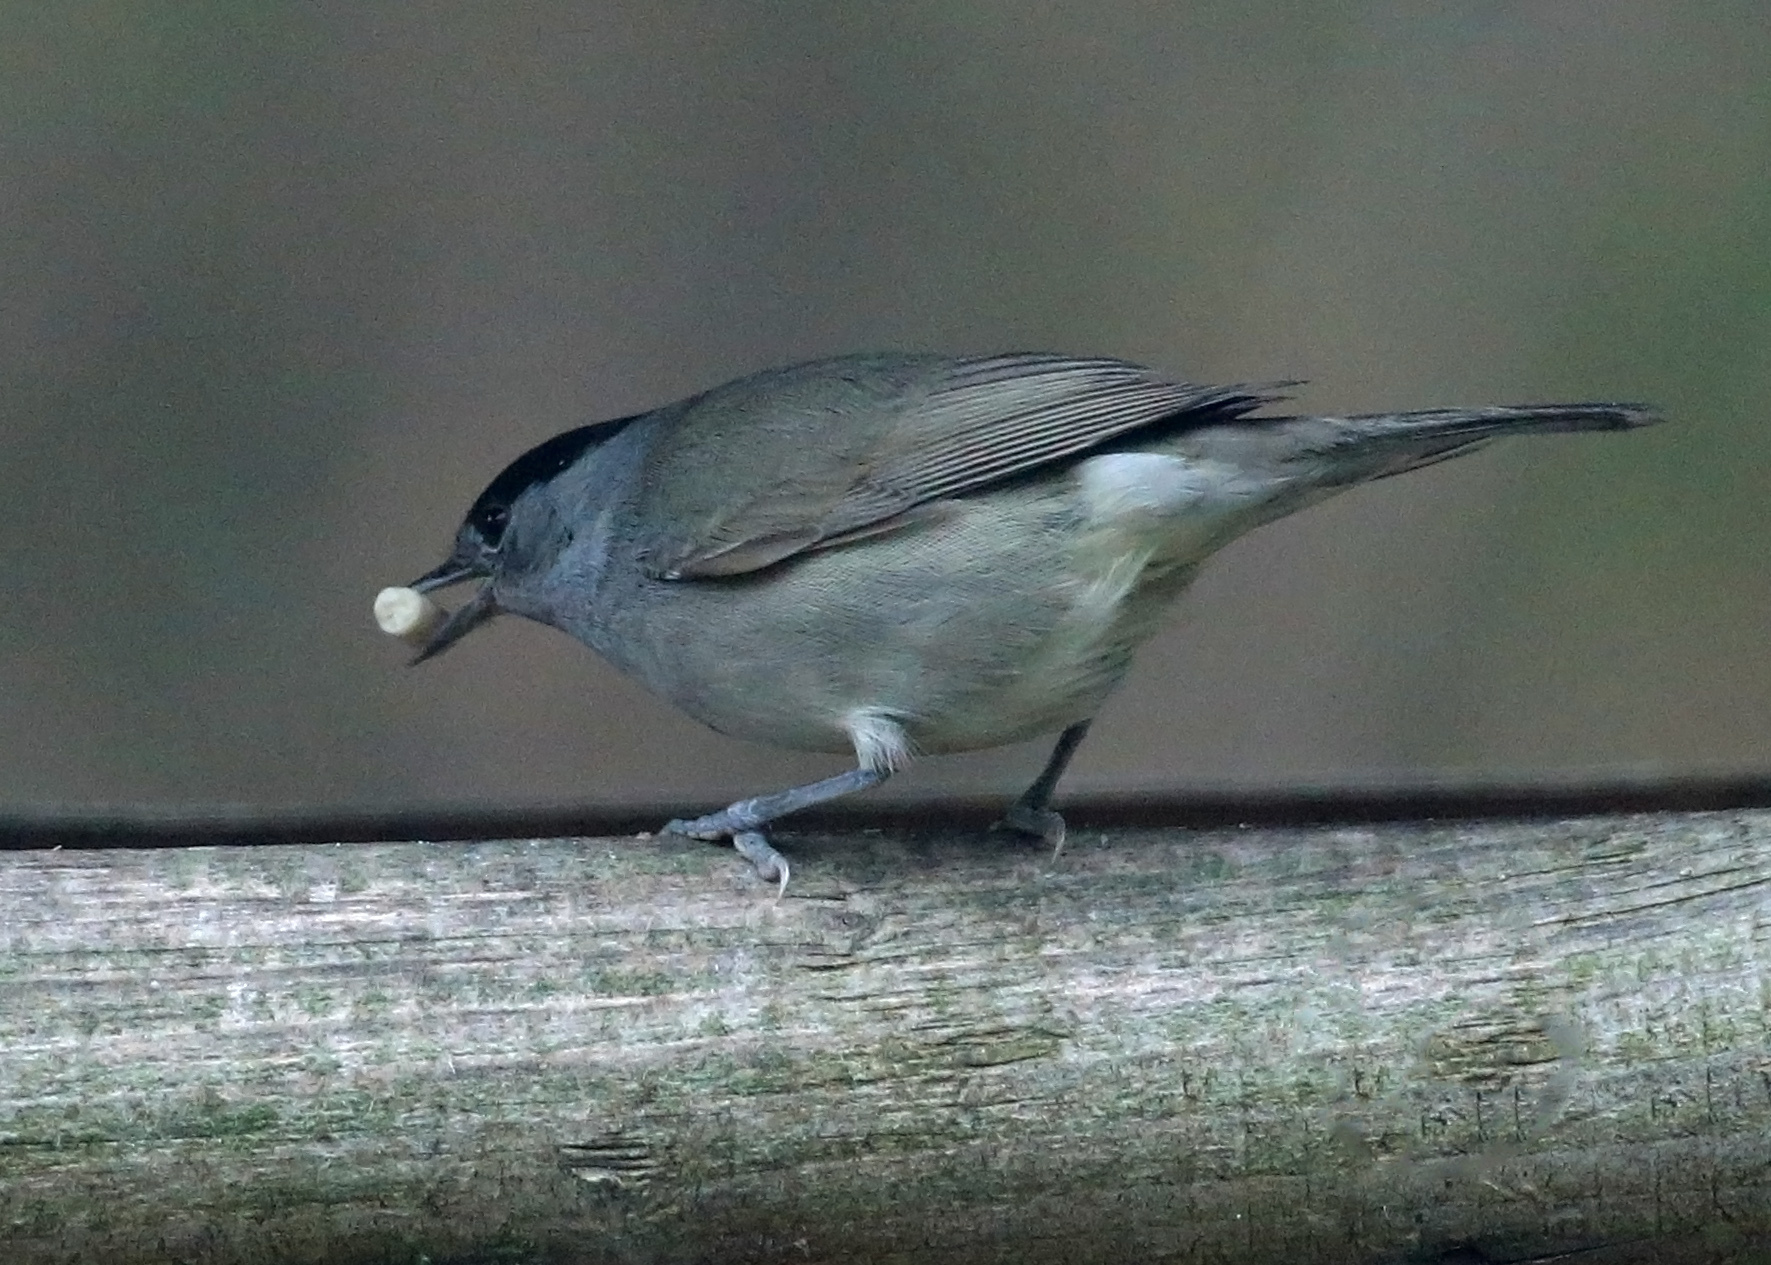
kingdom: Animalia
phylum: Chordata
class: Aves
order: Passeriformes
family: Sylviidae
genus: Sylvia
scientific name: Sylvia atricapilla
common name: Eurasian blackcap
